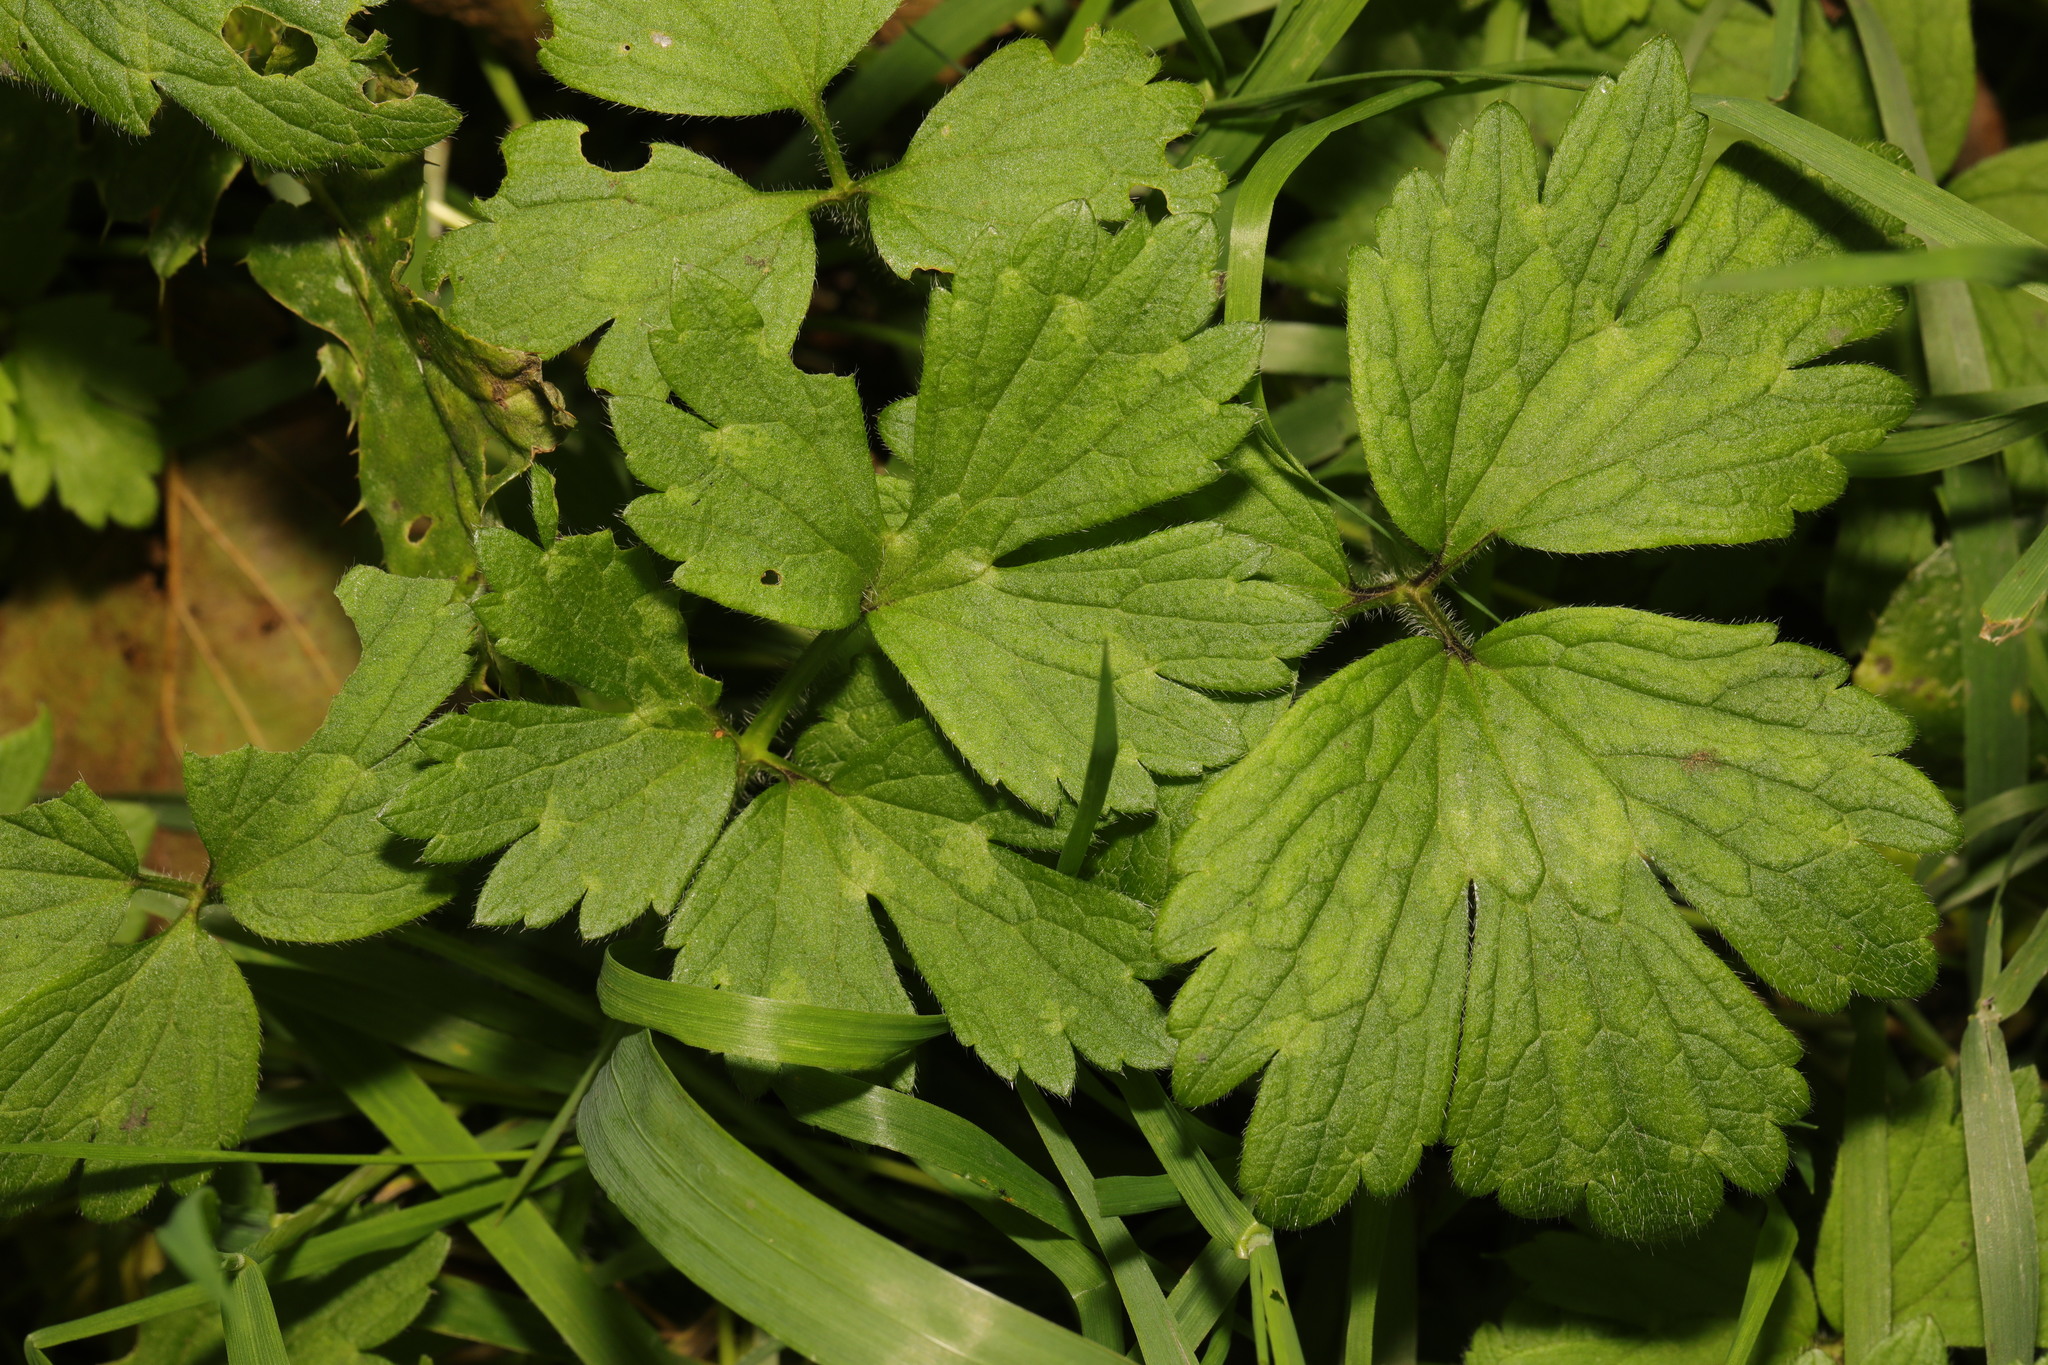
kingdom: Plantae
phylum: Tracheophyta
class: Magnoliopsida
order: Ranunculales
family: Ranunculaceae
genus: Ranunculus
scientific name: Ranunculus repens
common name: Creeping buttercup
